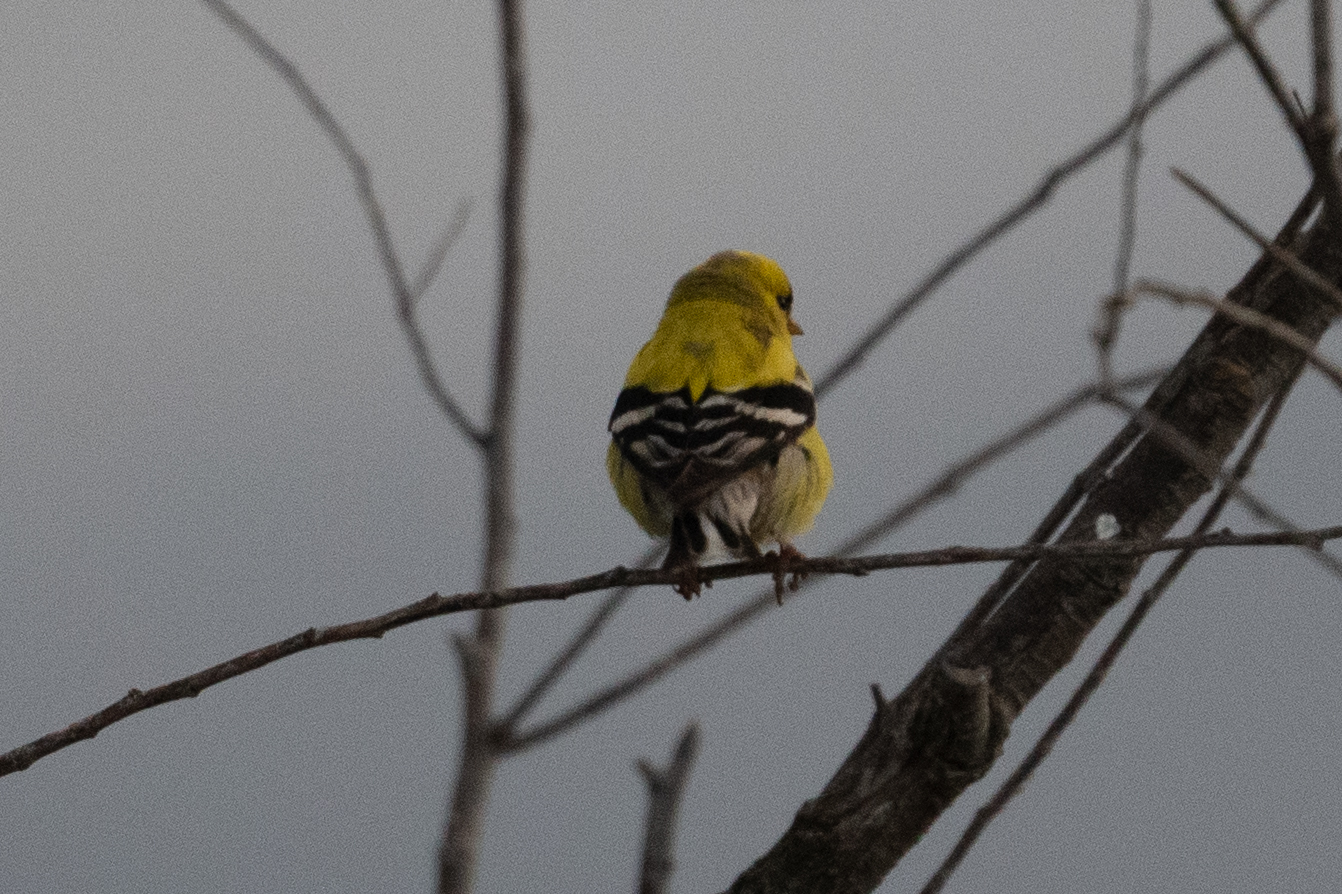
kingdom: Animalia
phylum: Chordata
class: Aves
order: Passeriformes
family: Fringillidae
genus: Spinus
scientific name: Spinus tristis
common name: American goldfinch
